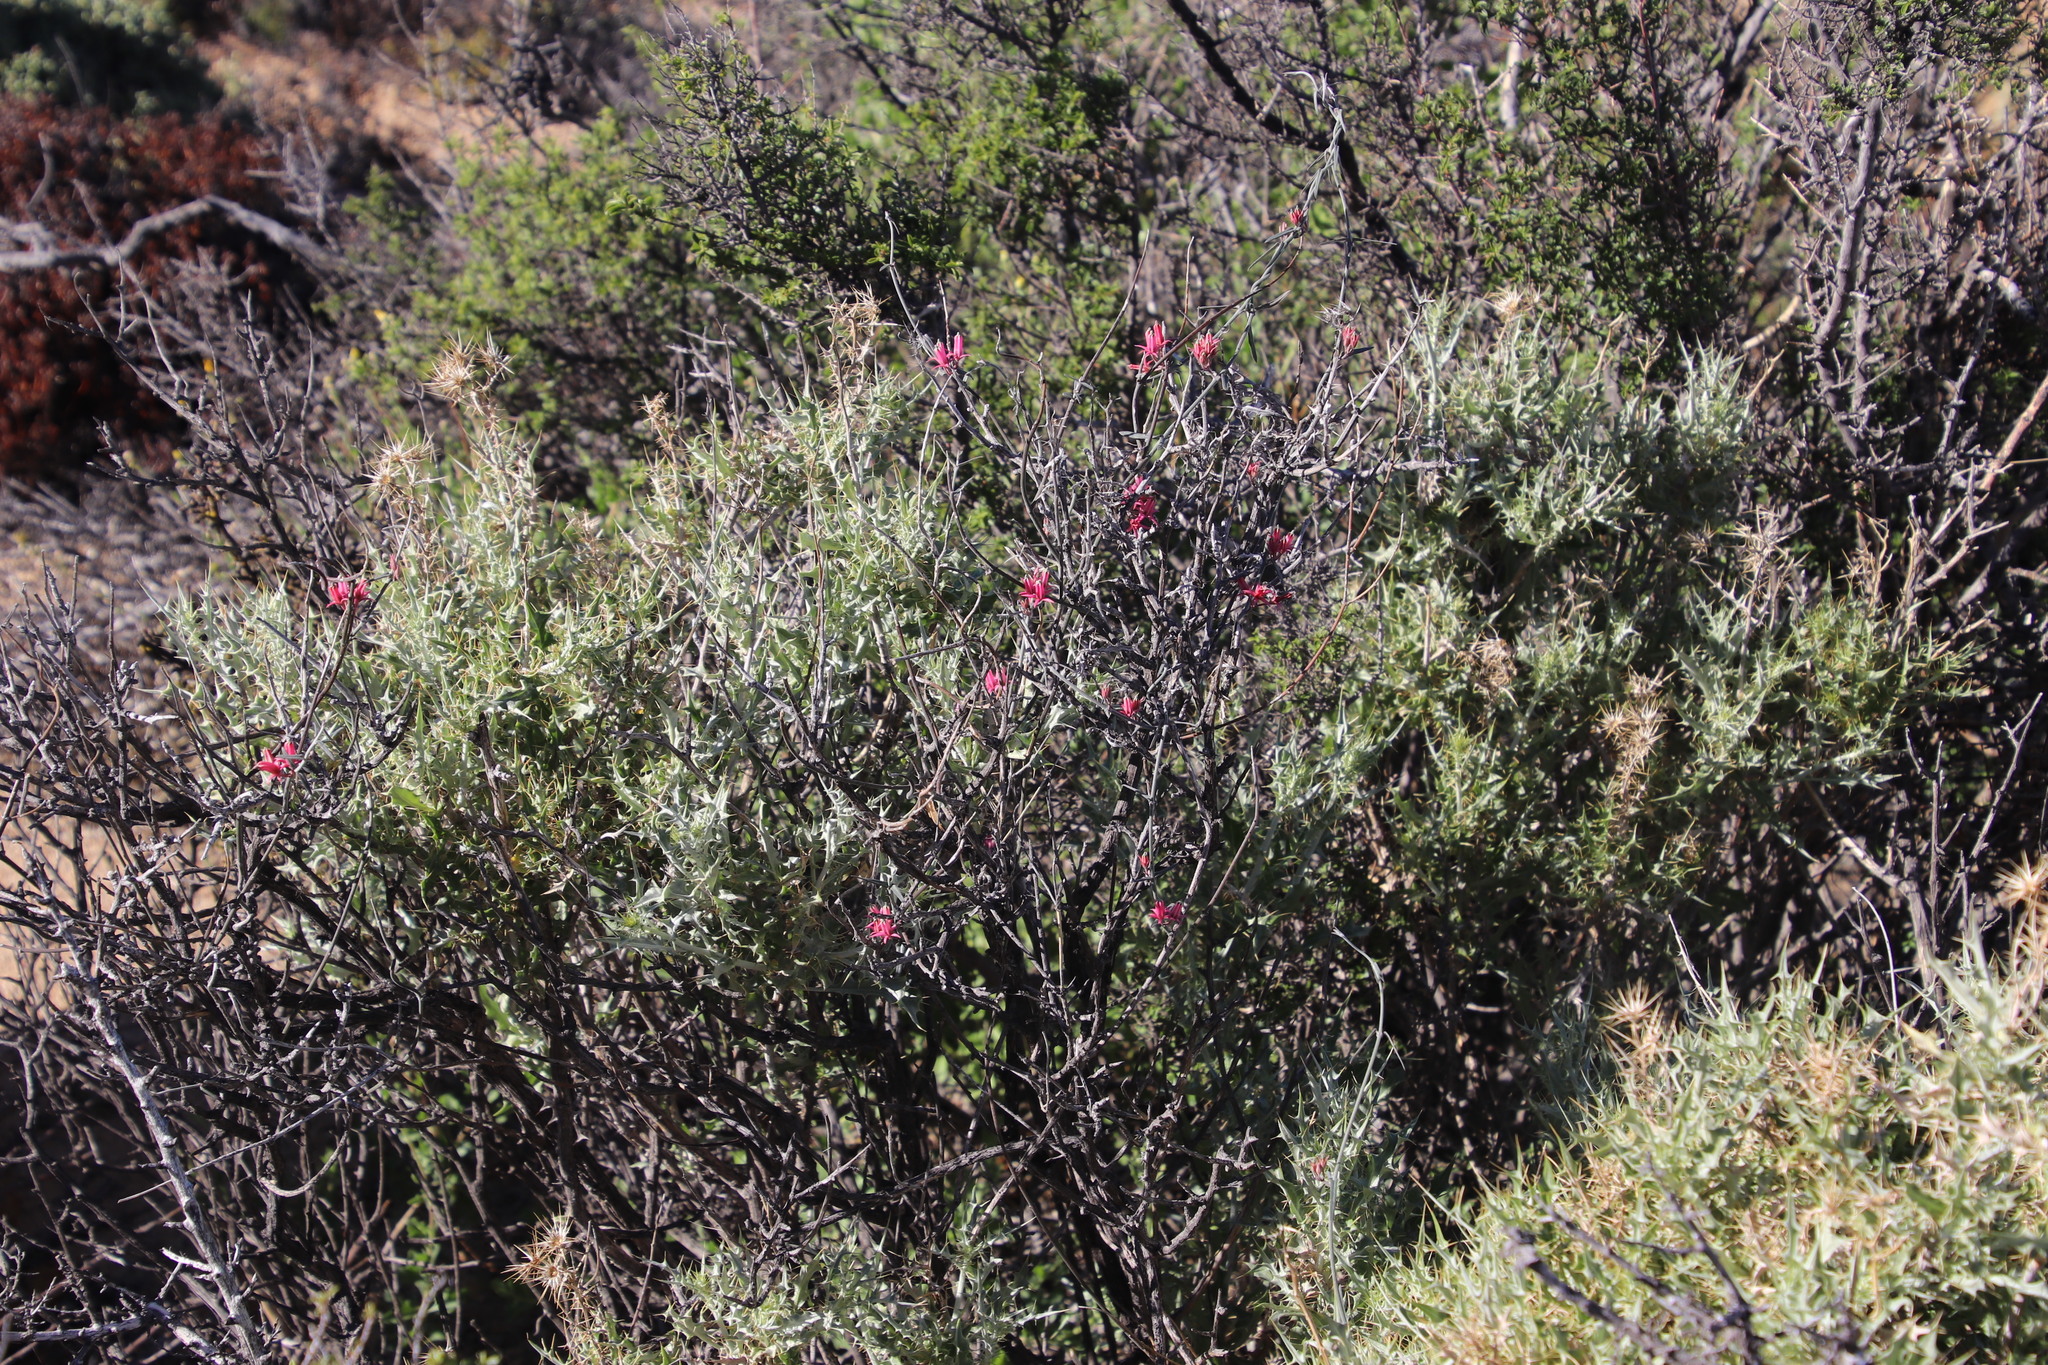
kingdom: Plantae
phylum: Tracheophyta
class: Magnoliopsida
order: Gentianales
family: Apocynaceae
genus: Microloma
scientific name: Microloma sagittatum
